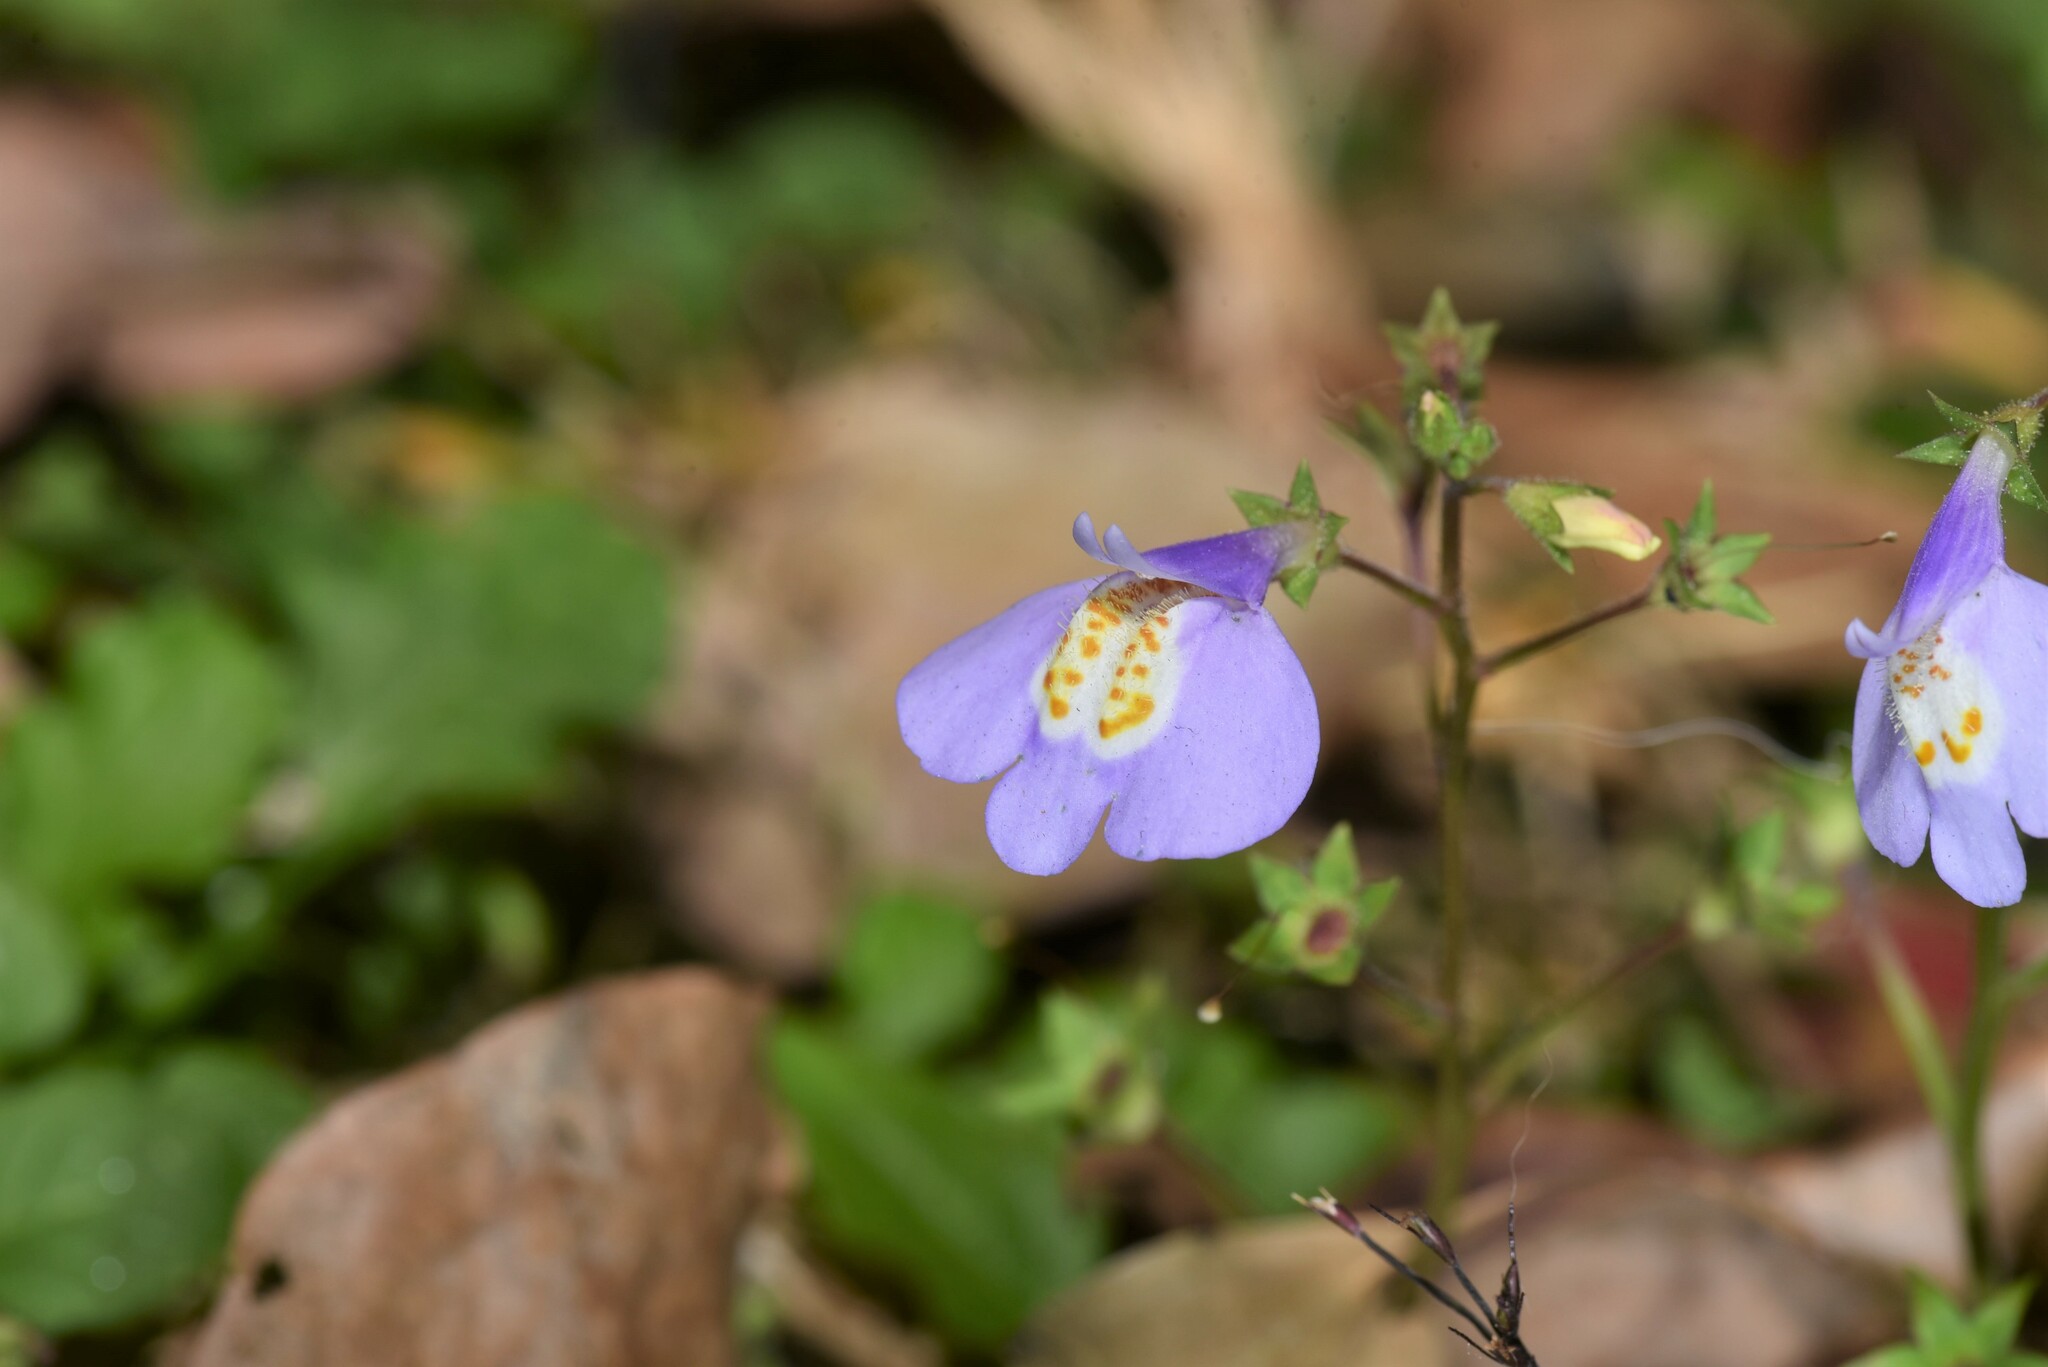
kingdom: Plantae
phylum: Tracheophyta
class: Magnoliopsida
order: Lamiales
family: Mazaceae
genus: Mazus
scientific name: Mazus fauriei
